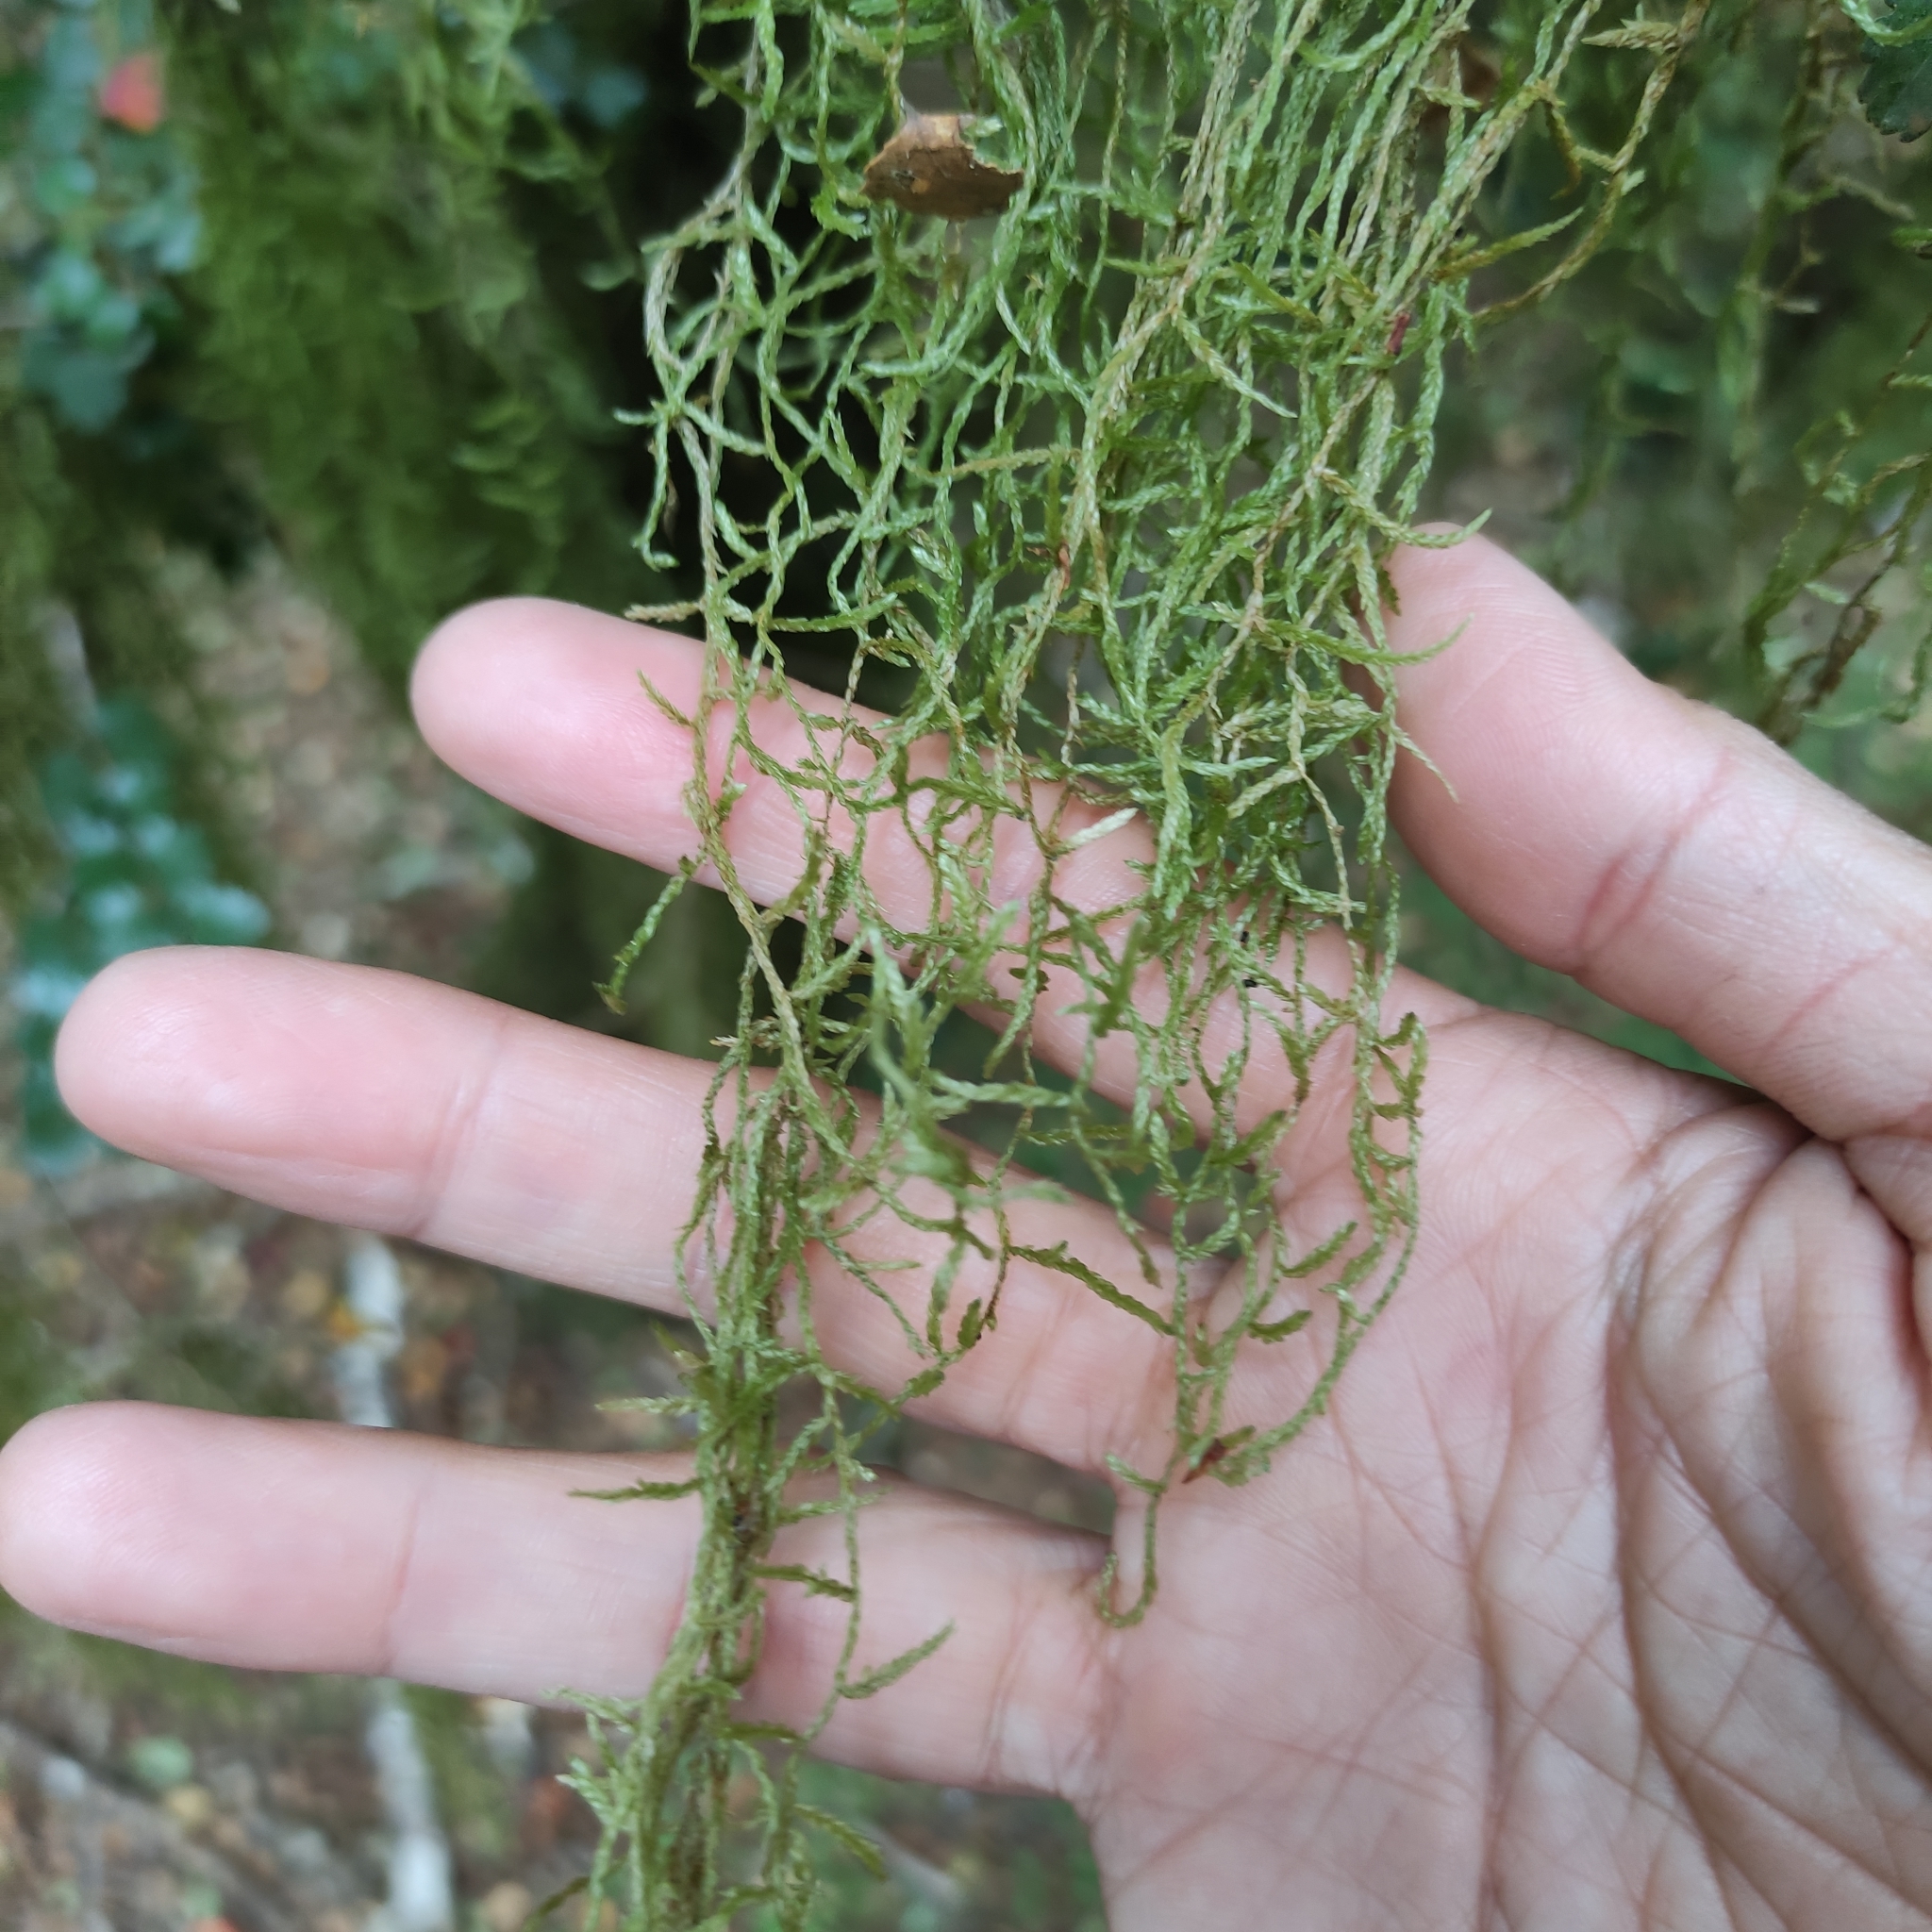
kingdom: Plantae
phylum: Bryophyta
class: Bryopsida
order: Hypnales
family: Lembophyllaceae
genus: Weymouthia
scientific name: Weymouthia mollis
